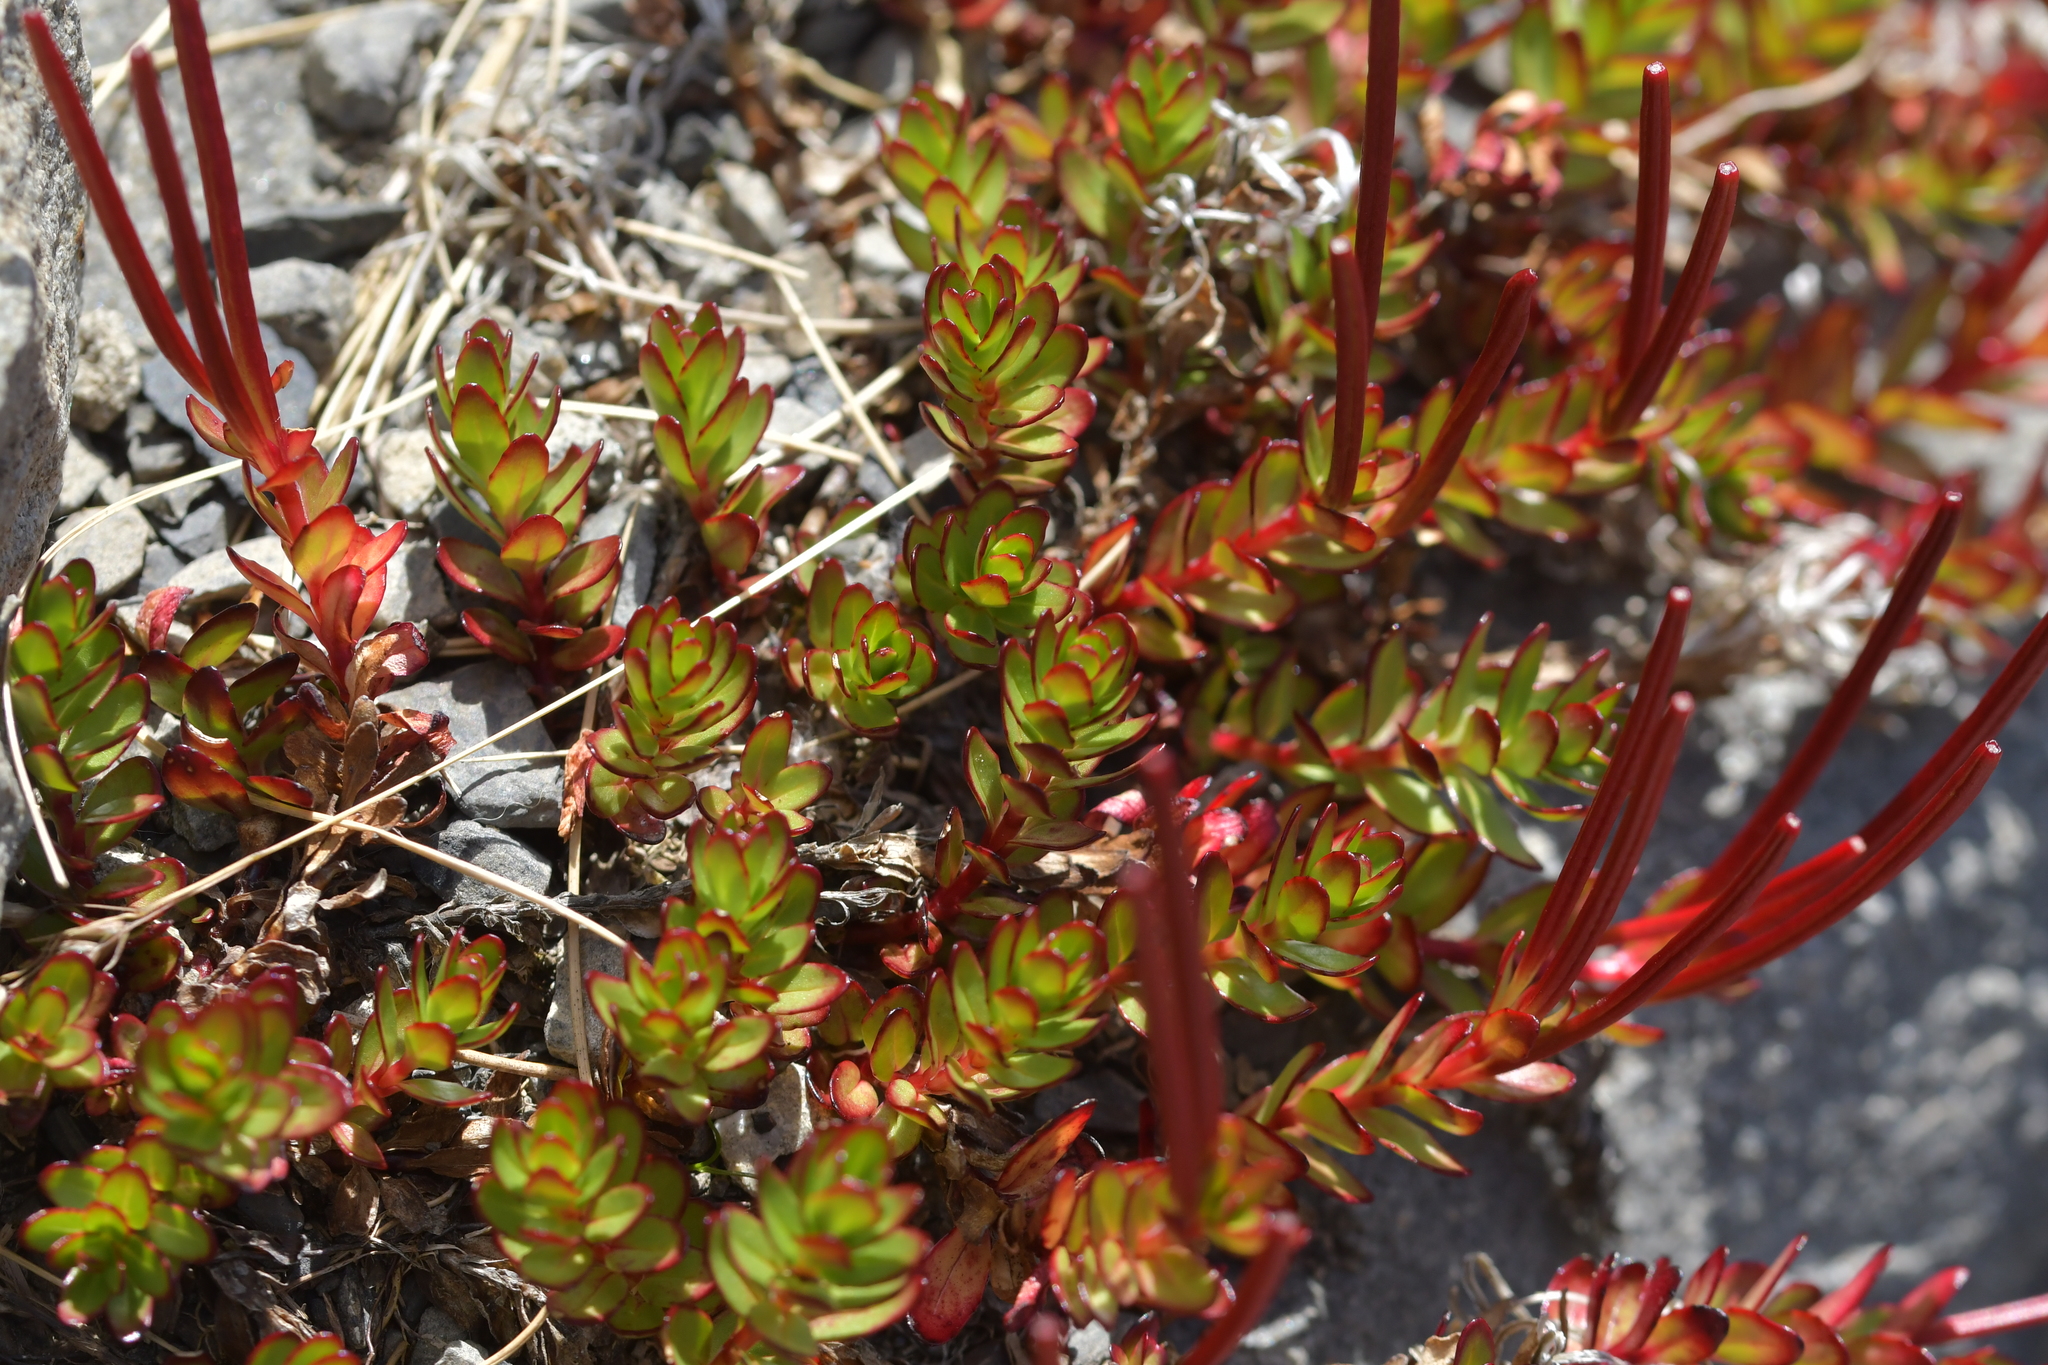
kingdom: Plantae
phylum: Tracheophyta
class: Magnoliopsida
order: Myrtales
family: Onagraceae
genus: Epilobium
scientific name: Epilobium glabellum
